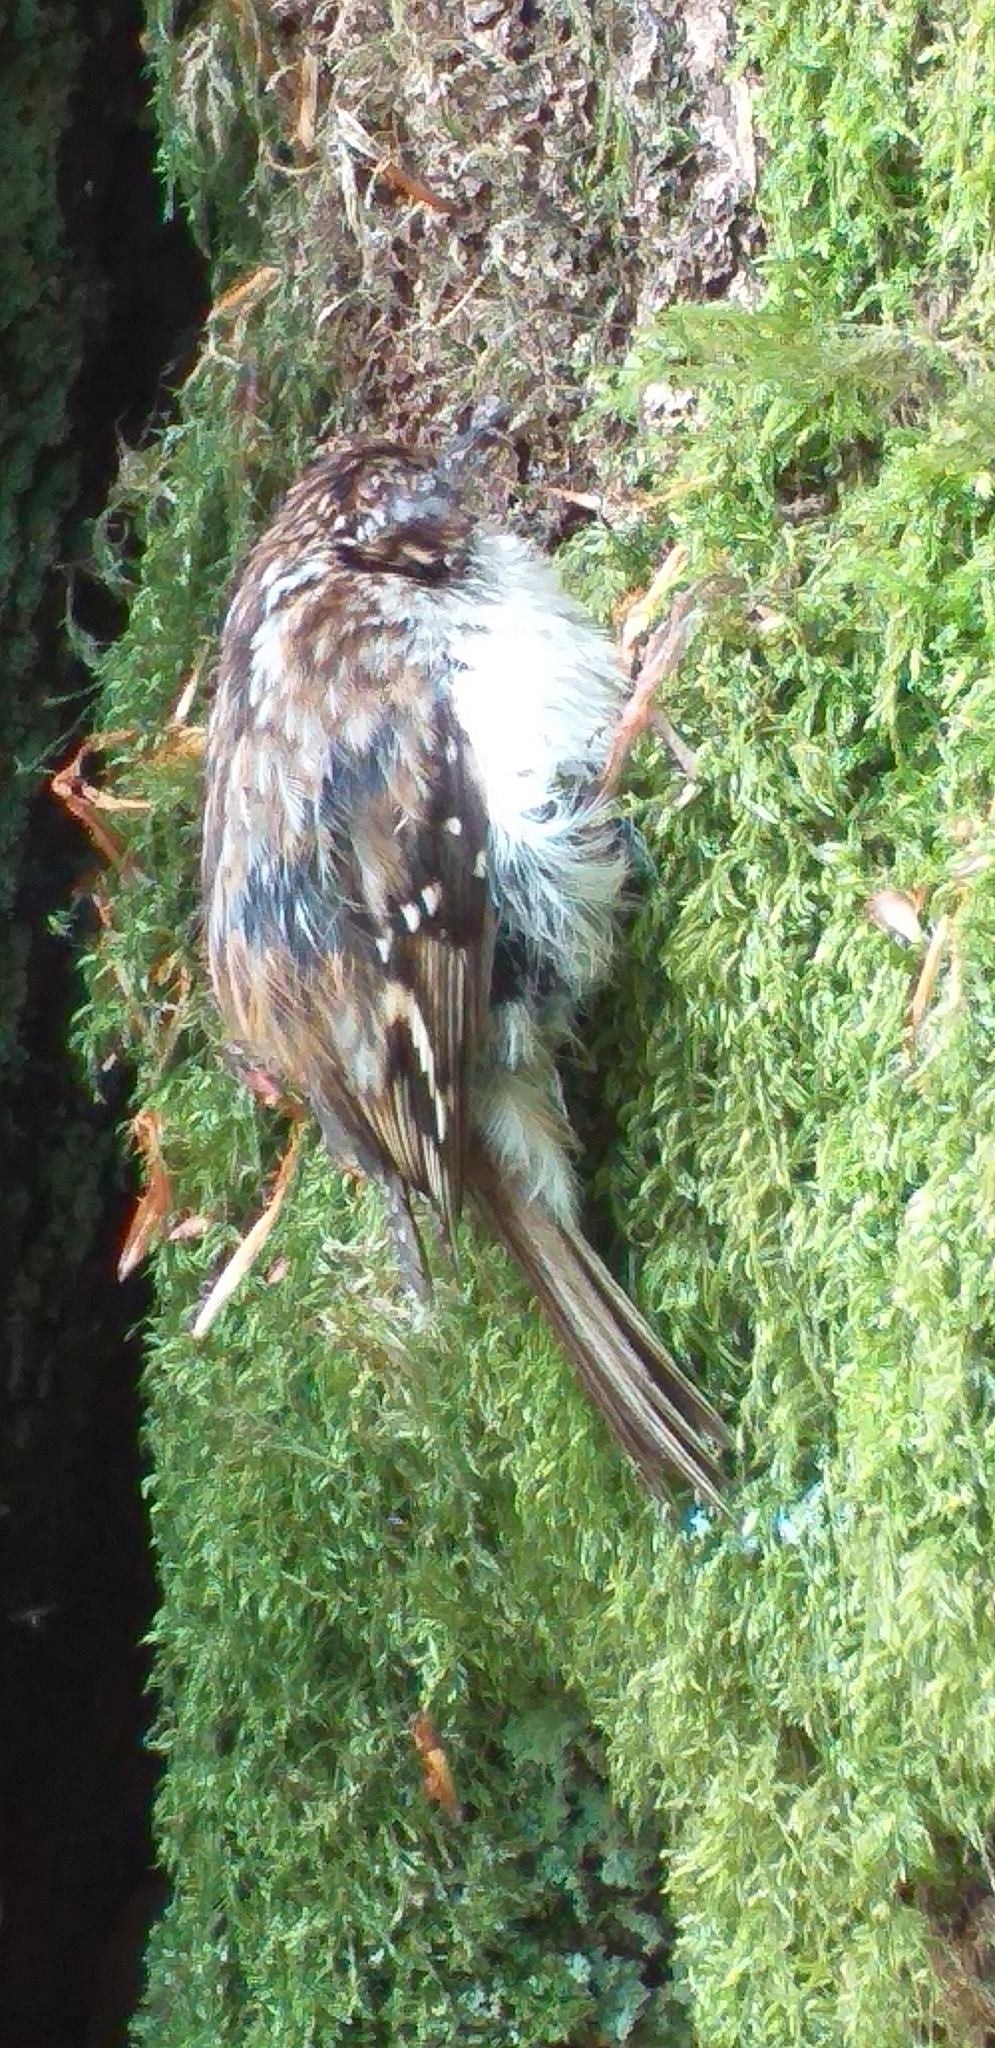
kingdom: Animalia
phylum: Chordata
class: Aves
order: Passeriformes
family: Certhiidae
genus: Certhia
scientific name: Certhia familiaris
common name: Eurasian treecreeper
